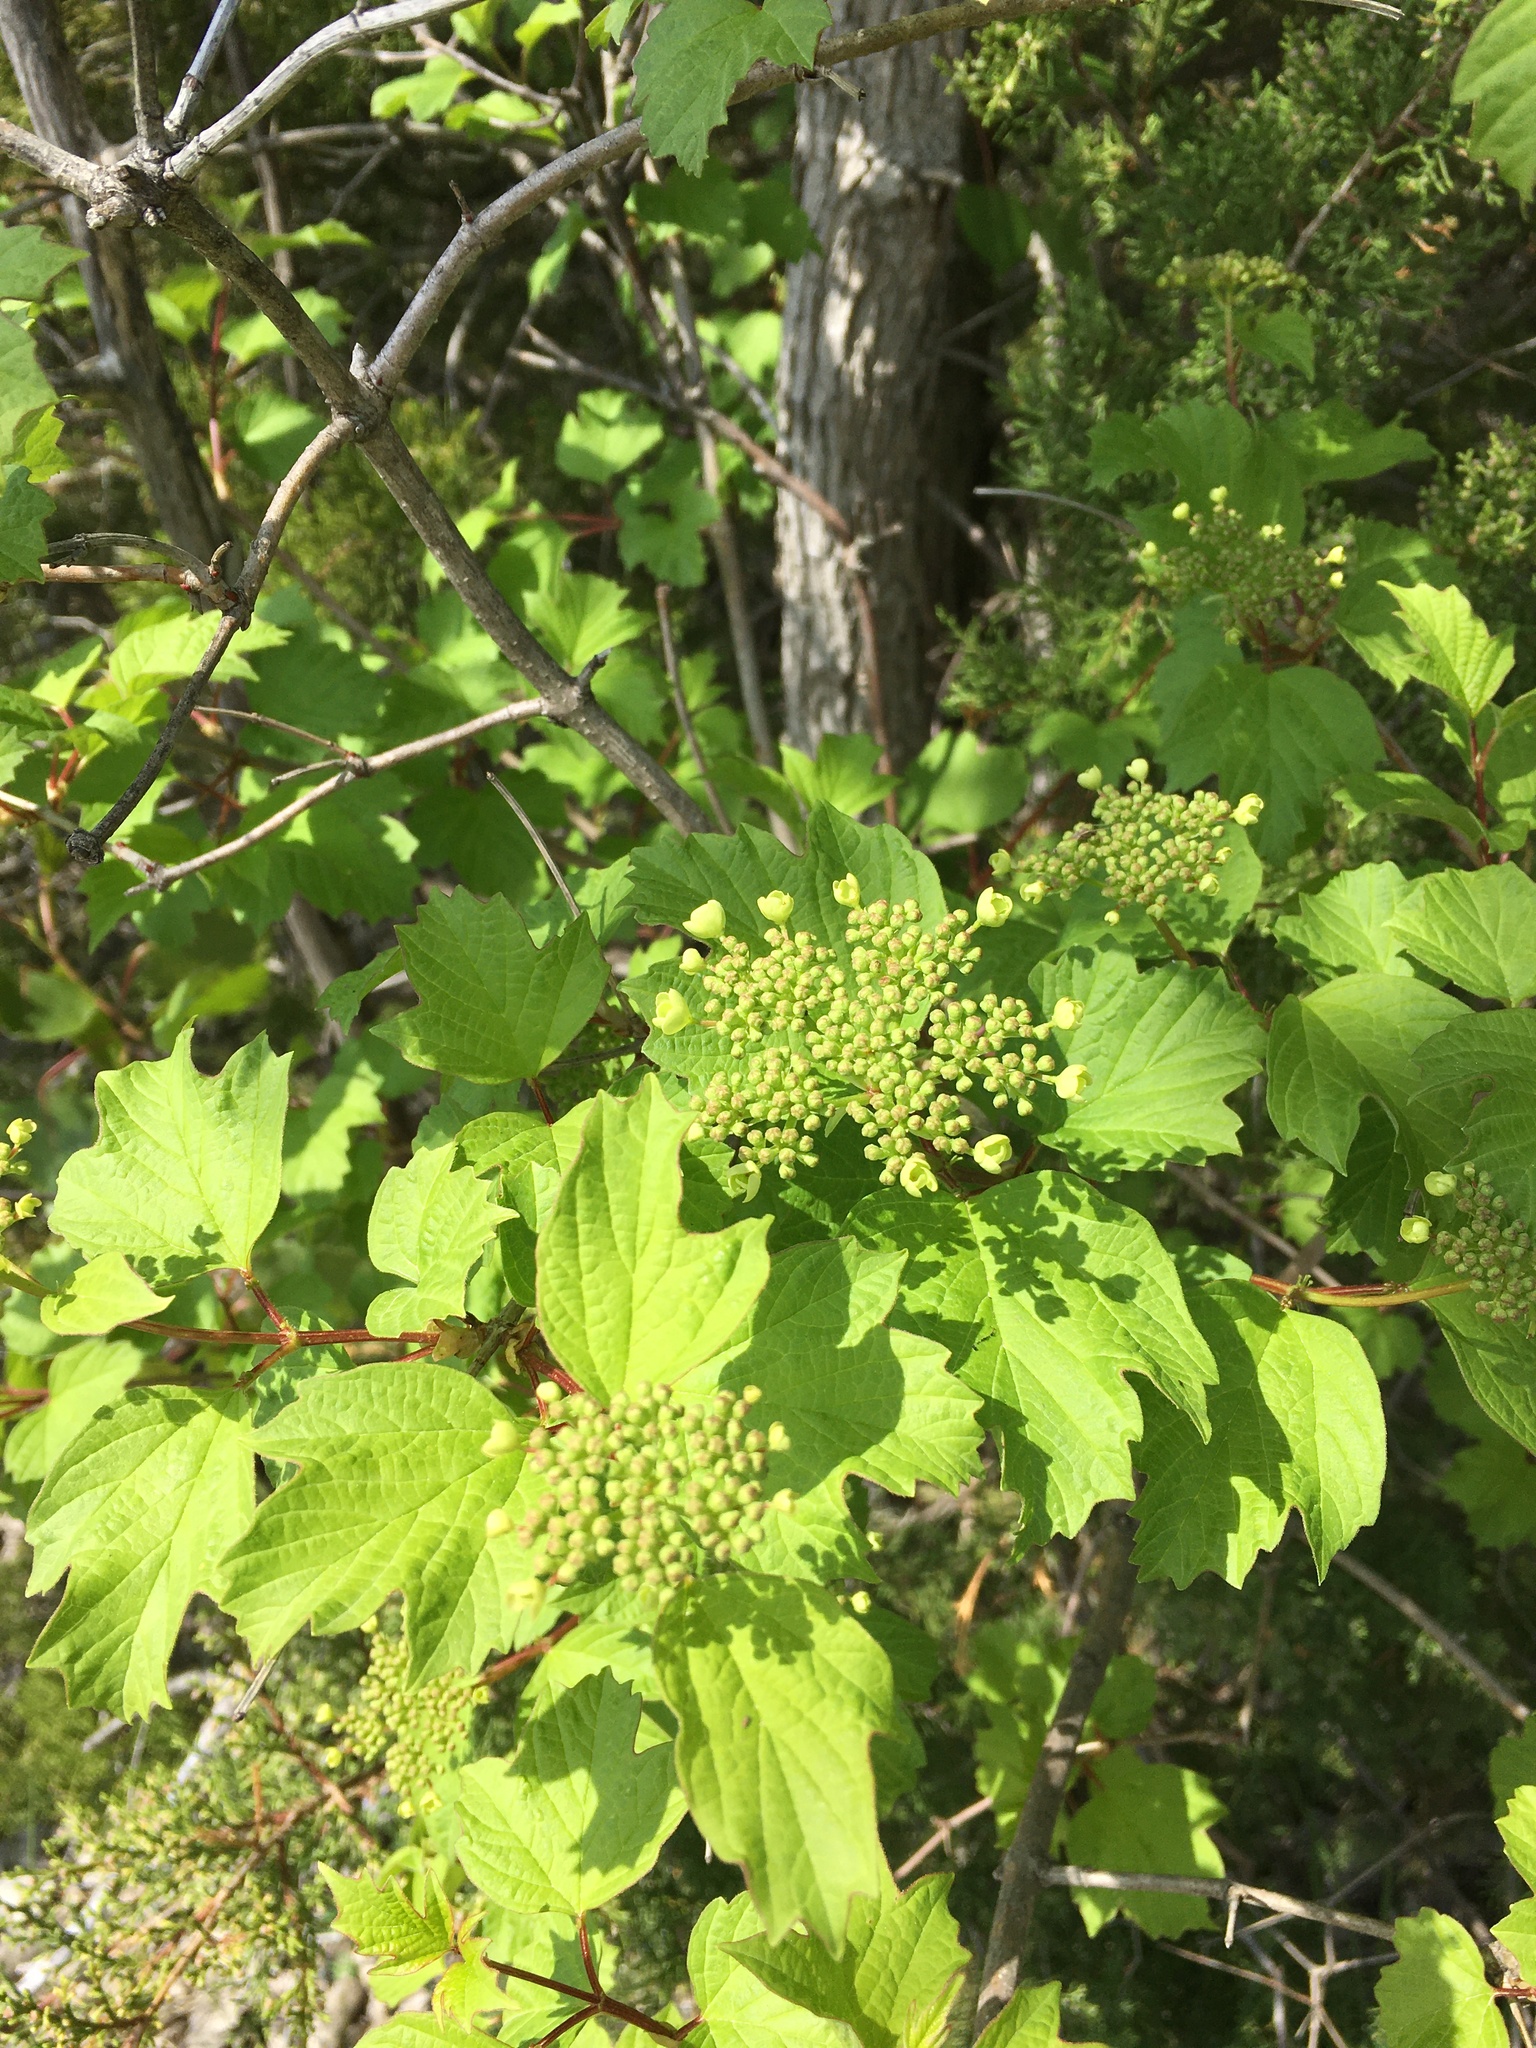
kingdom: Plantae
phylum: Tracheophyta
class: Magnoliopsida
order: Dipsacales
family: Viburnaceae
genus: Viburnum
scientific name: Viburnum opulus
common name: Guelder-rose
